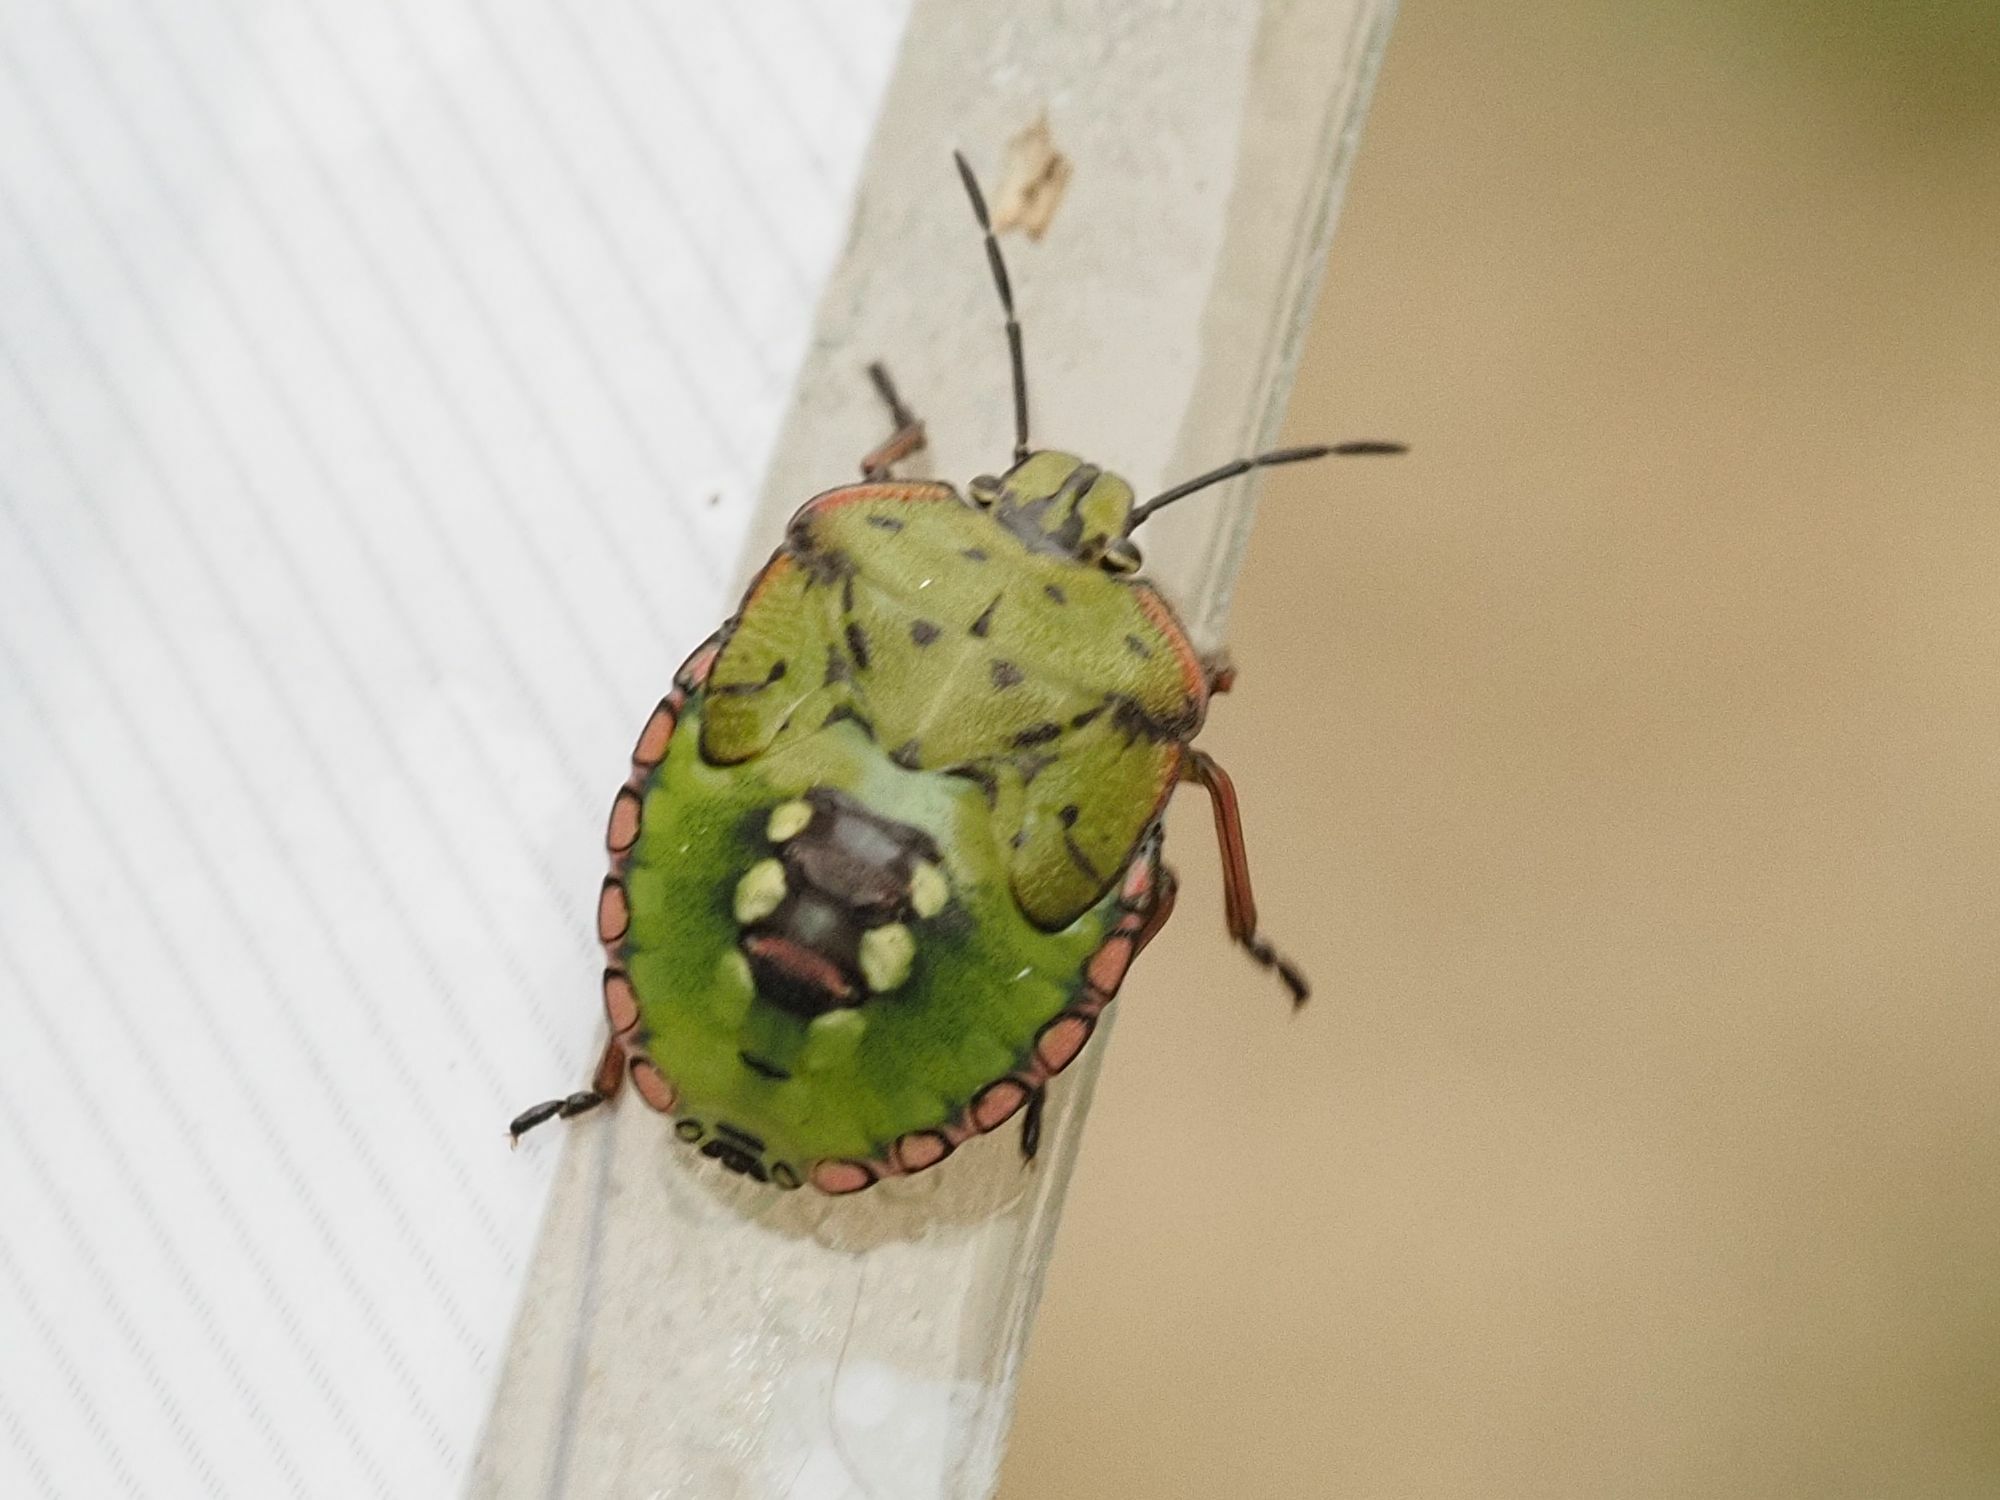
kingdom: Animalia
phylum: Arthropoda
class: Insecta
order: Hemiptera
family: Pentatomidae
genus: Nezara
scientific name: Nezara viridula
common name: Southern green stink bug
